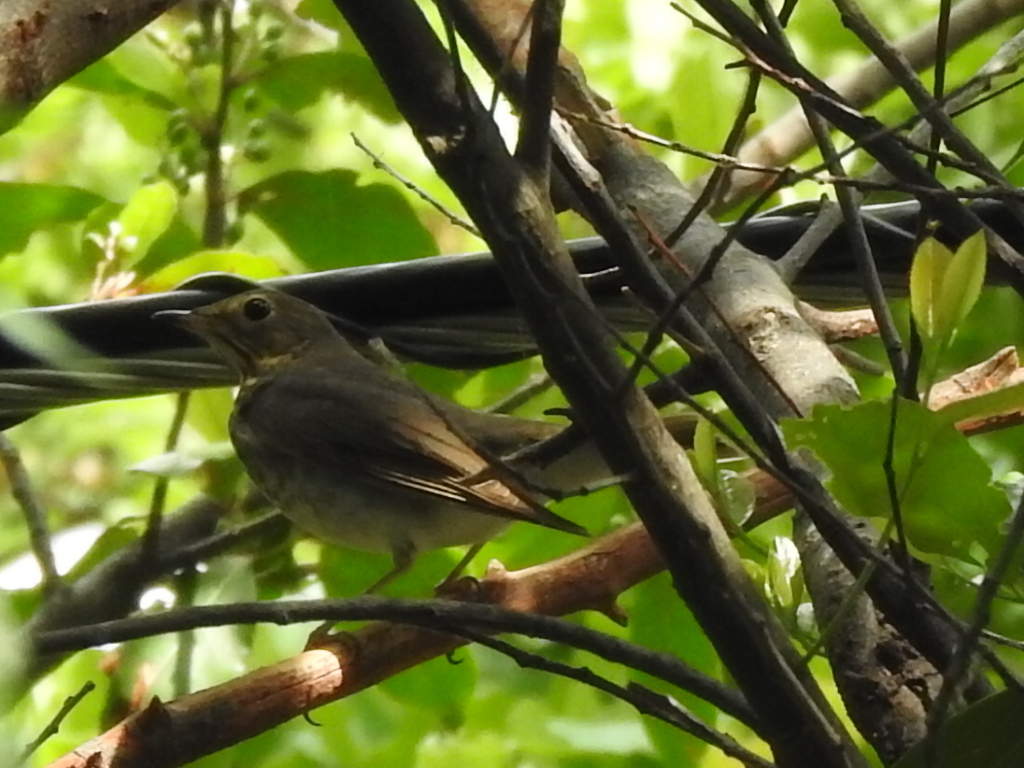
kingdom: Animalia
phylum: Chordata
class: Aves
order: Passeriformes
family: Turdidae
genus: Catharus
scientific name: Catharus ustulatus
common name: Swainson's thrush
